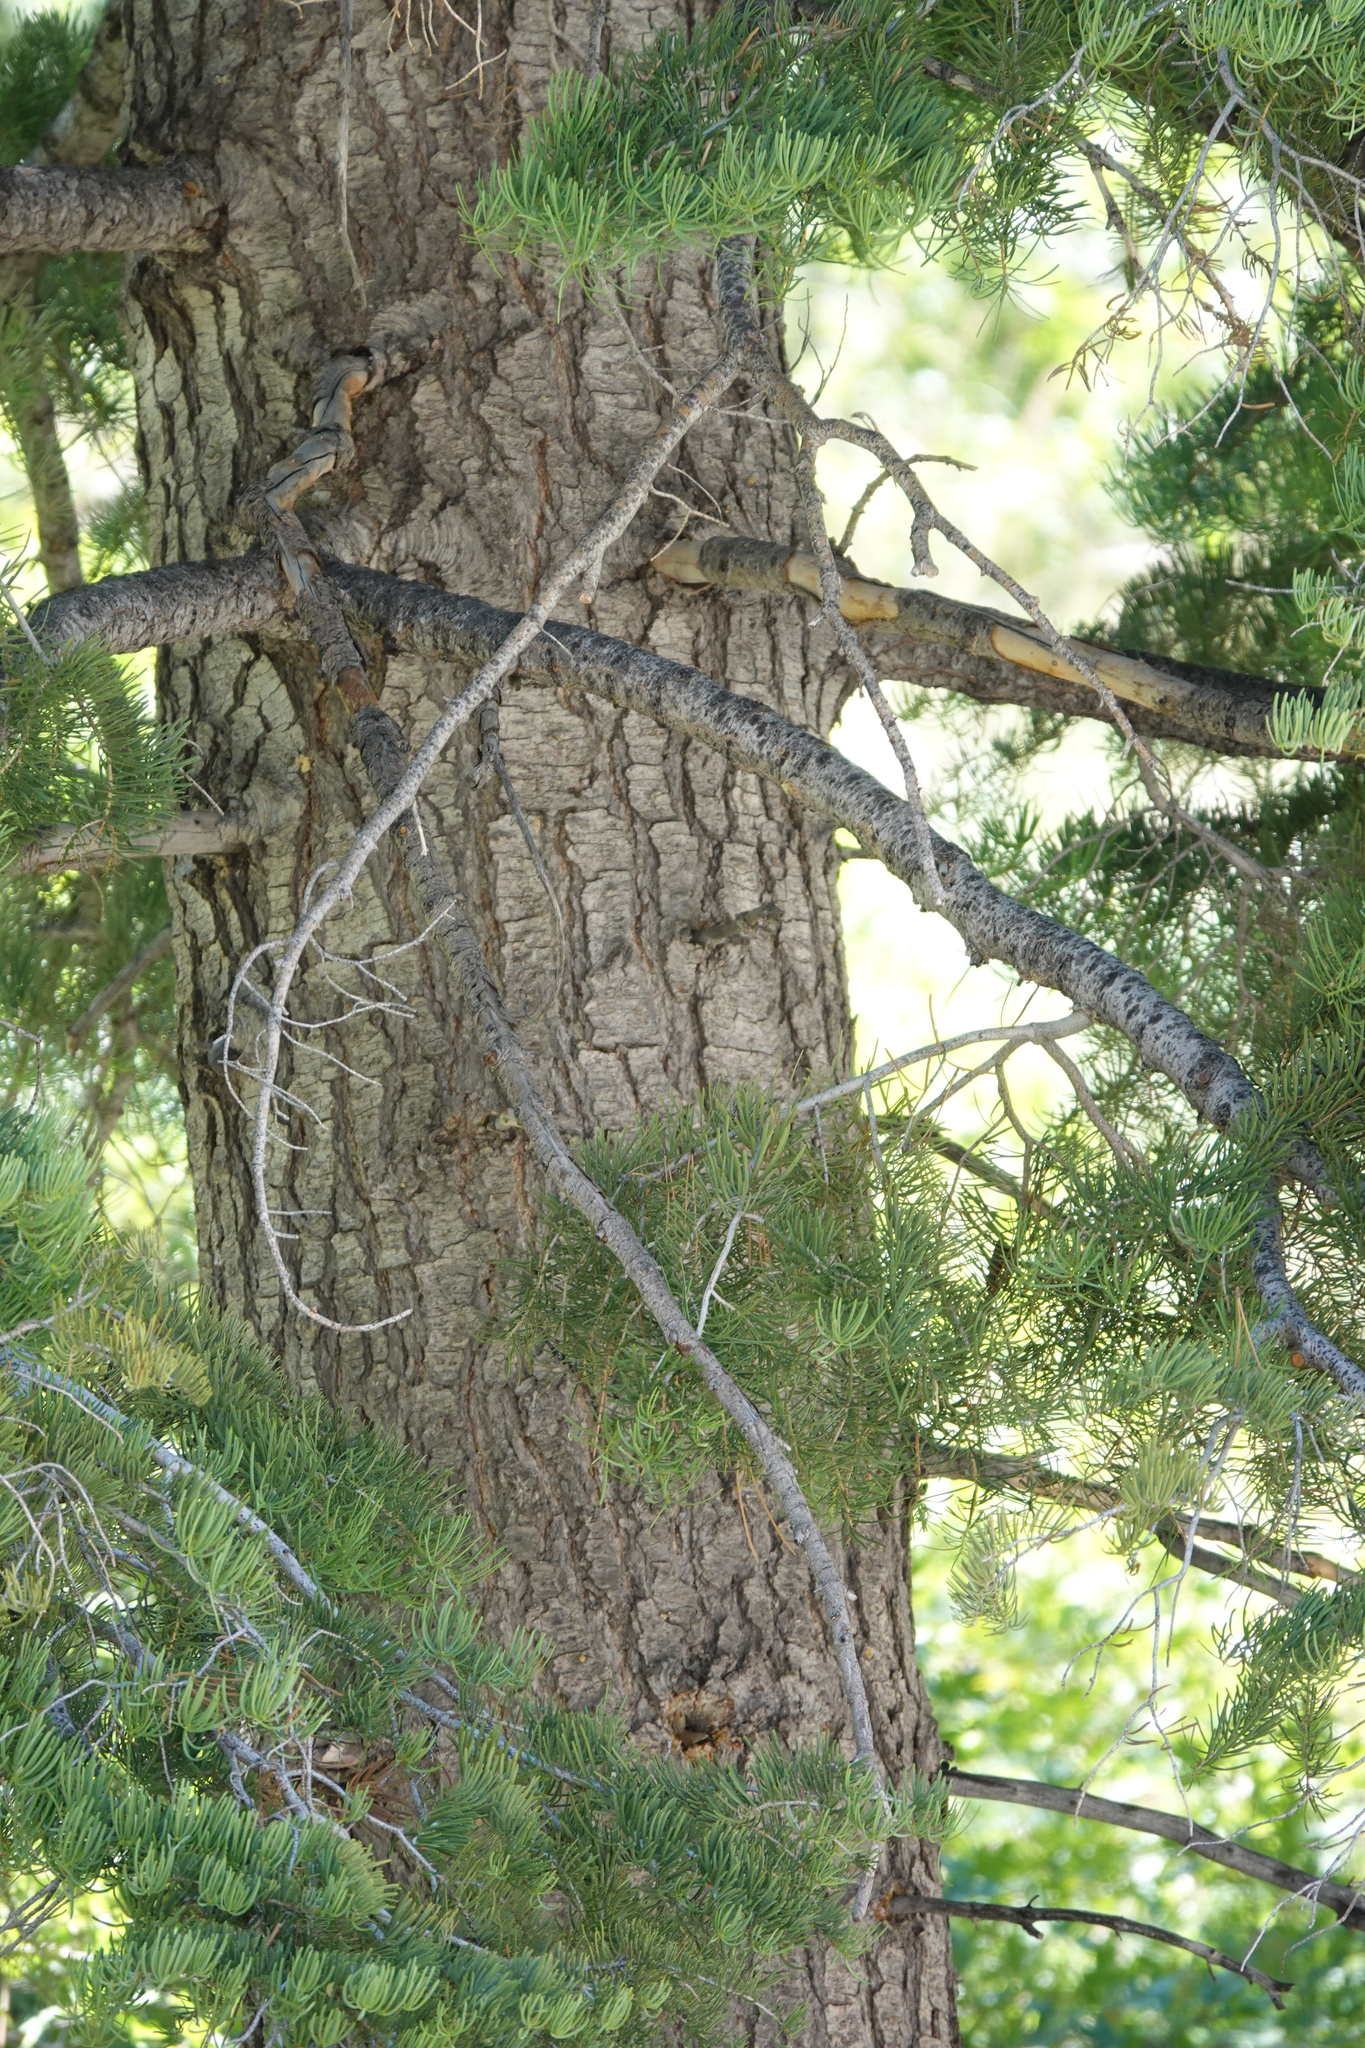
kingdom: Plantae
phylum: Tracheophyta
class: Pinopsida
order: Pinales
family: Pinaceae
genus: Abies
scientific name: Abies concolor
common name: Colorado fir
